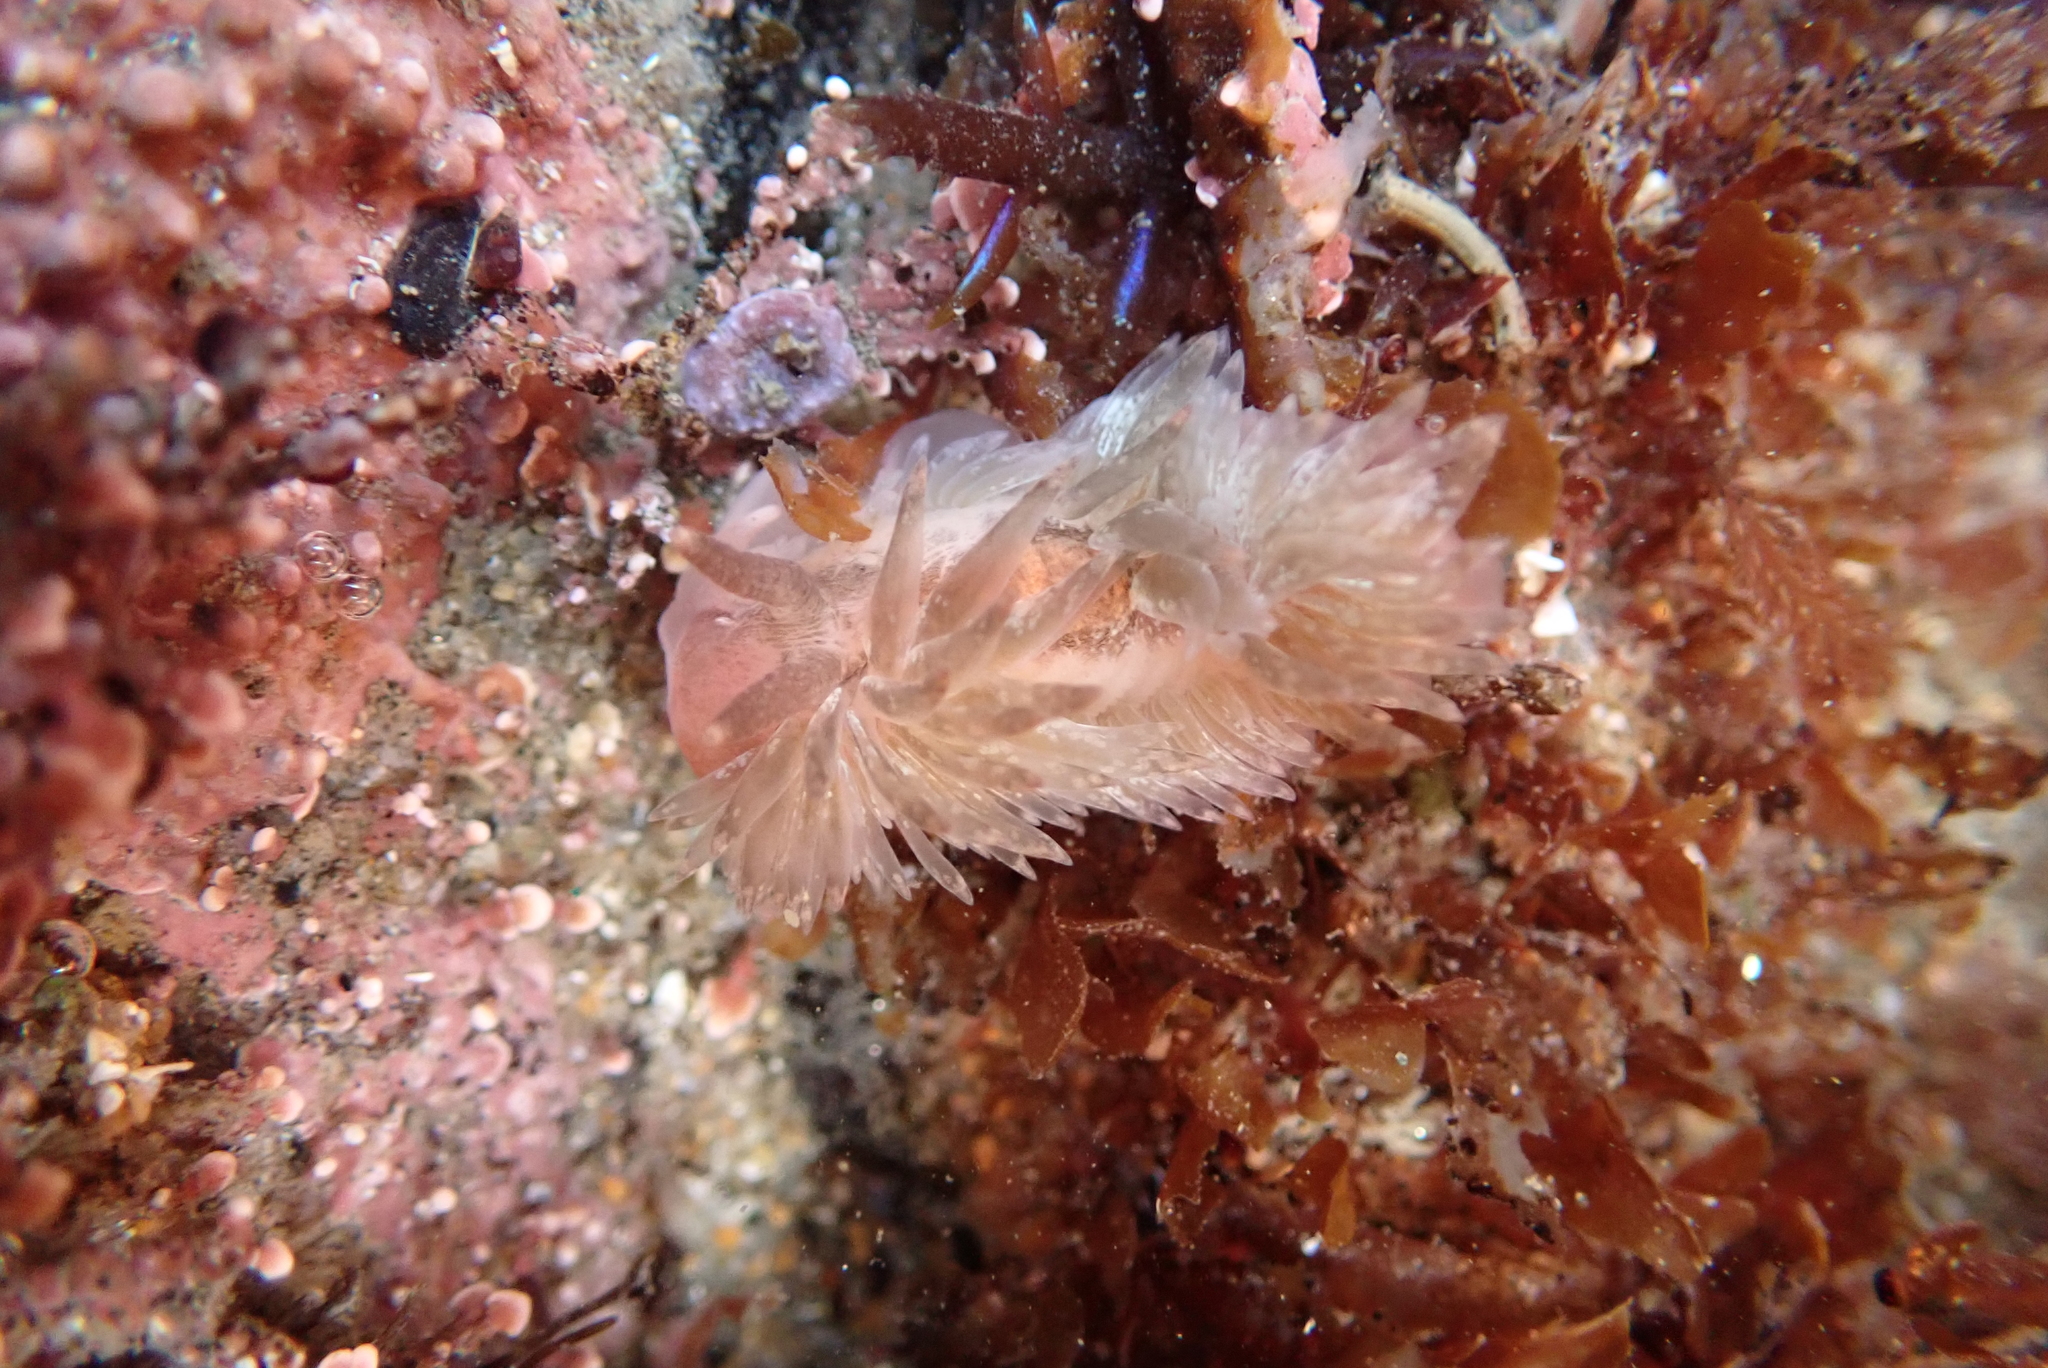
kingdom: Animalia
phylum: Mollusca
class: Gastropoda
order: Nudibranchia
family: Aeolidiidae
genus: Aeolidia
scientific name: Aeolidia loui
